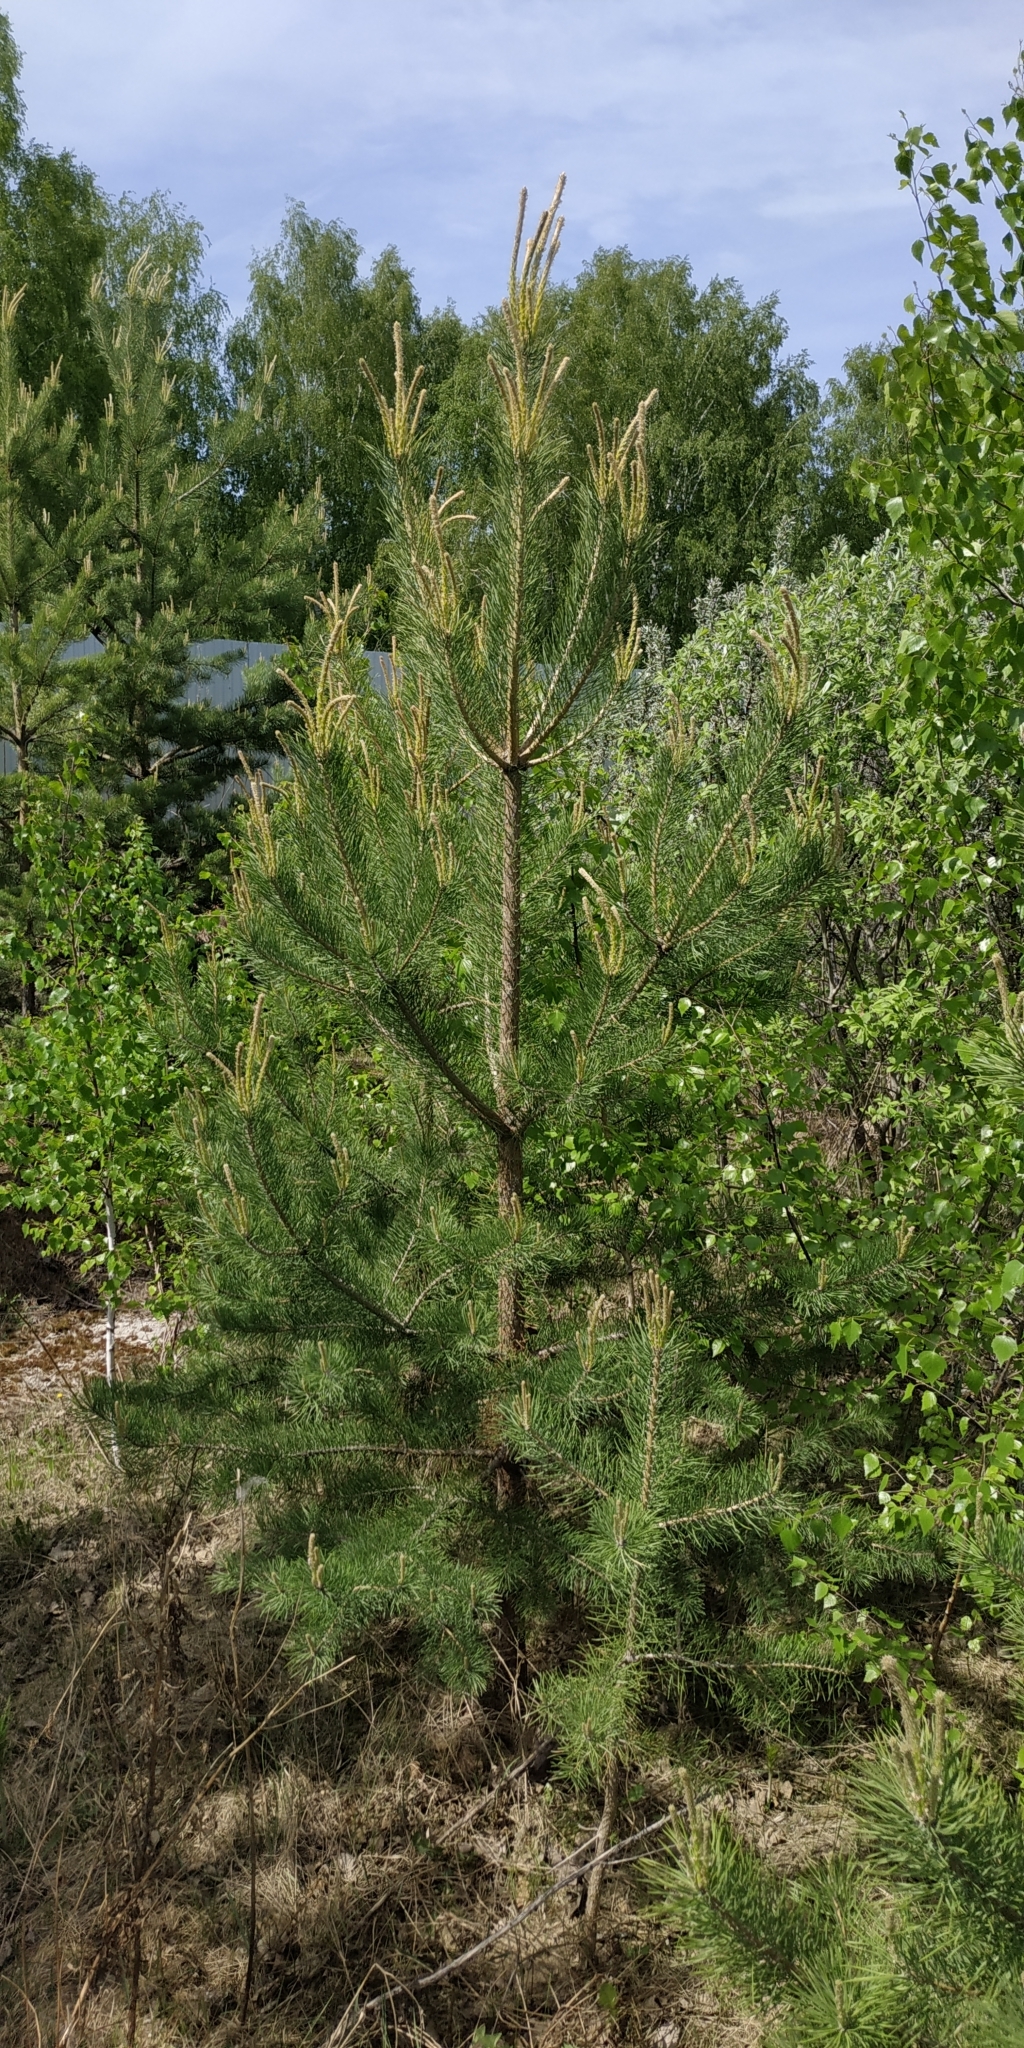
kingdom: Plantae
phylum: Tracheophyta
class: Pinopsida
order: Pinales
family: Pinaceae
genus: Pinus
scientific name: Pinus sylvestris
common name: Scots pine
